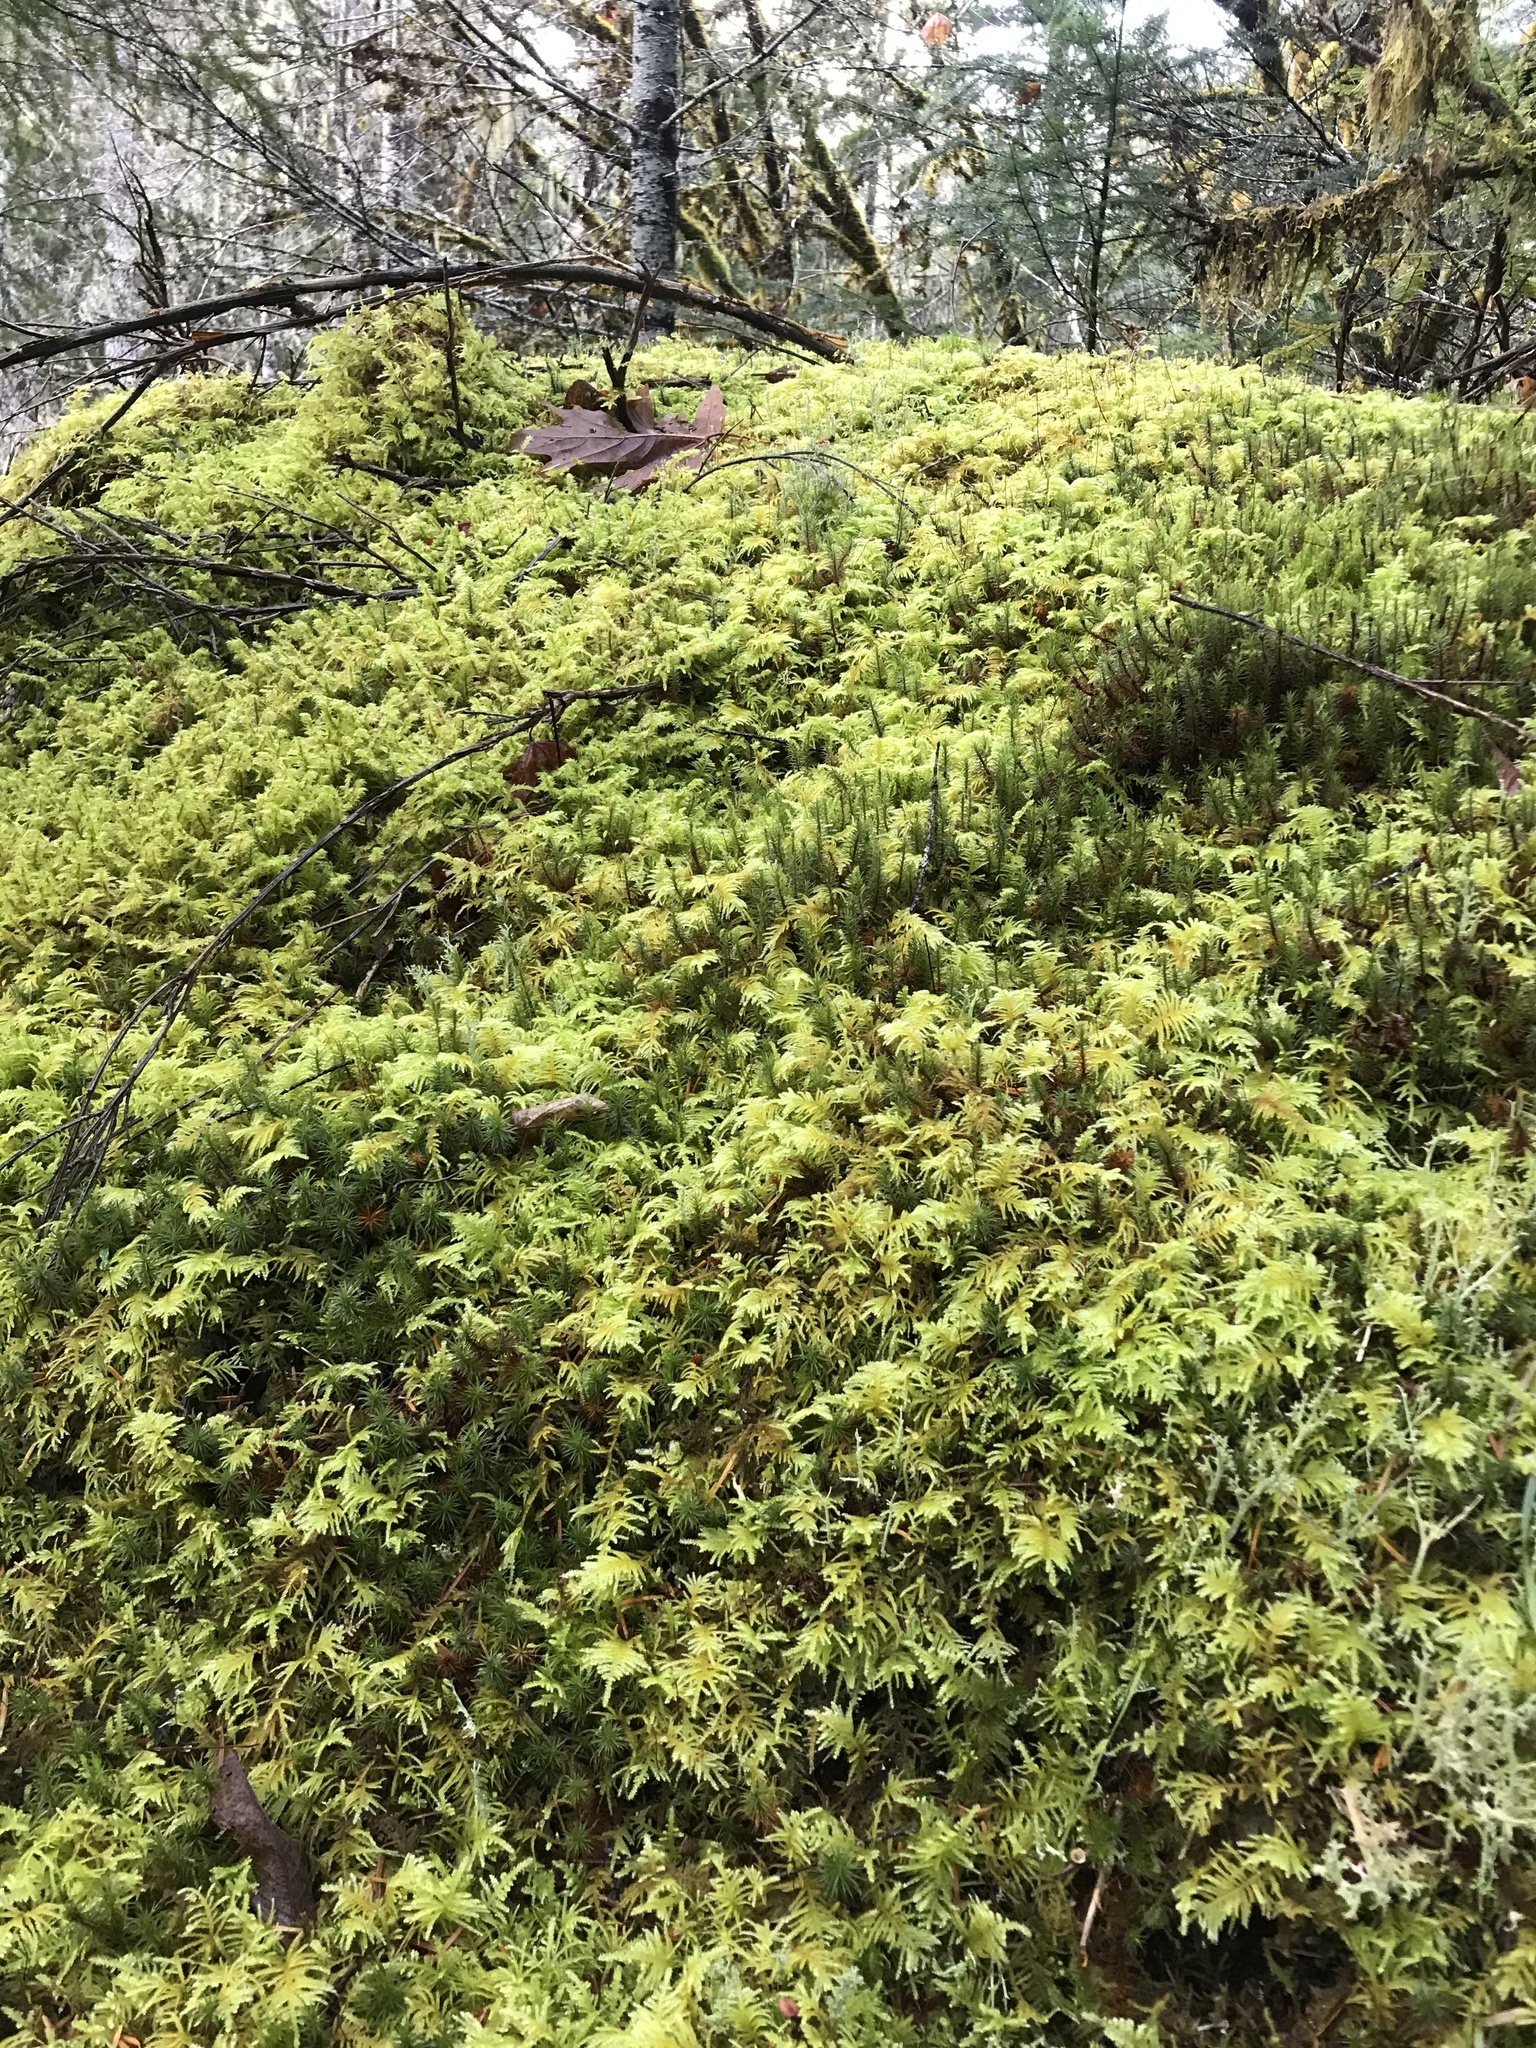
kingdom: Plantae
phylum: Bryophyta
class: Bryopsida
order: Hypnales
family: Brachytheciaceae
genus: Kindbergia
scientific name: Kindbergia oregana
